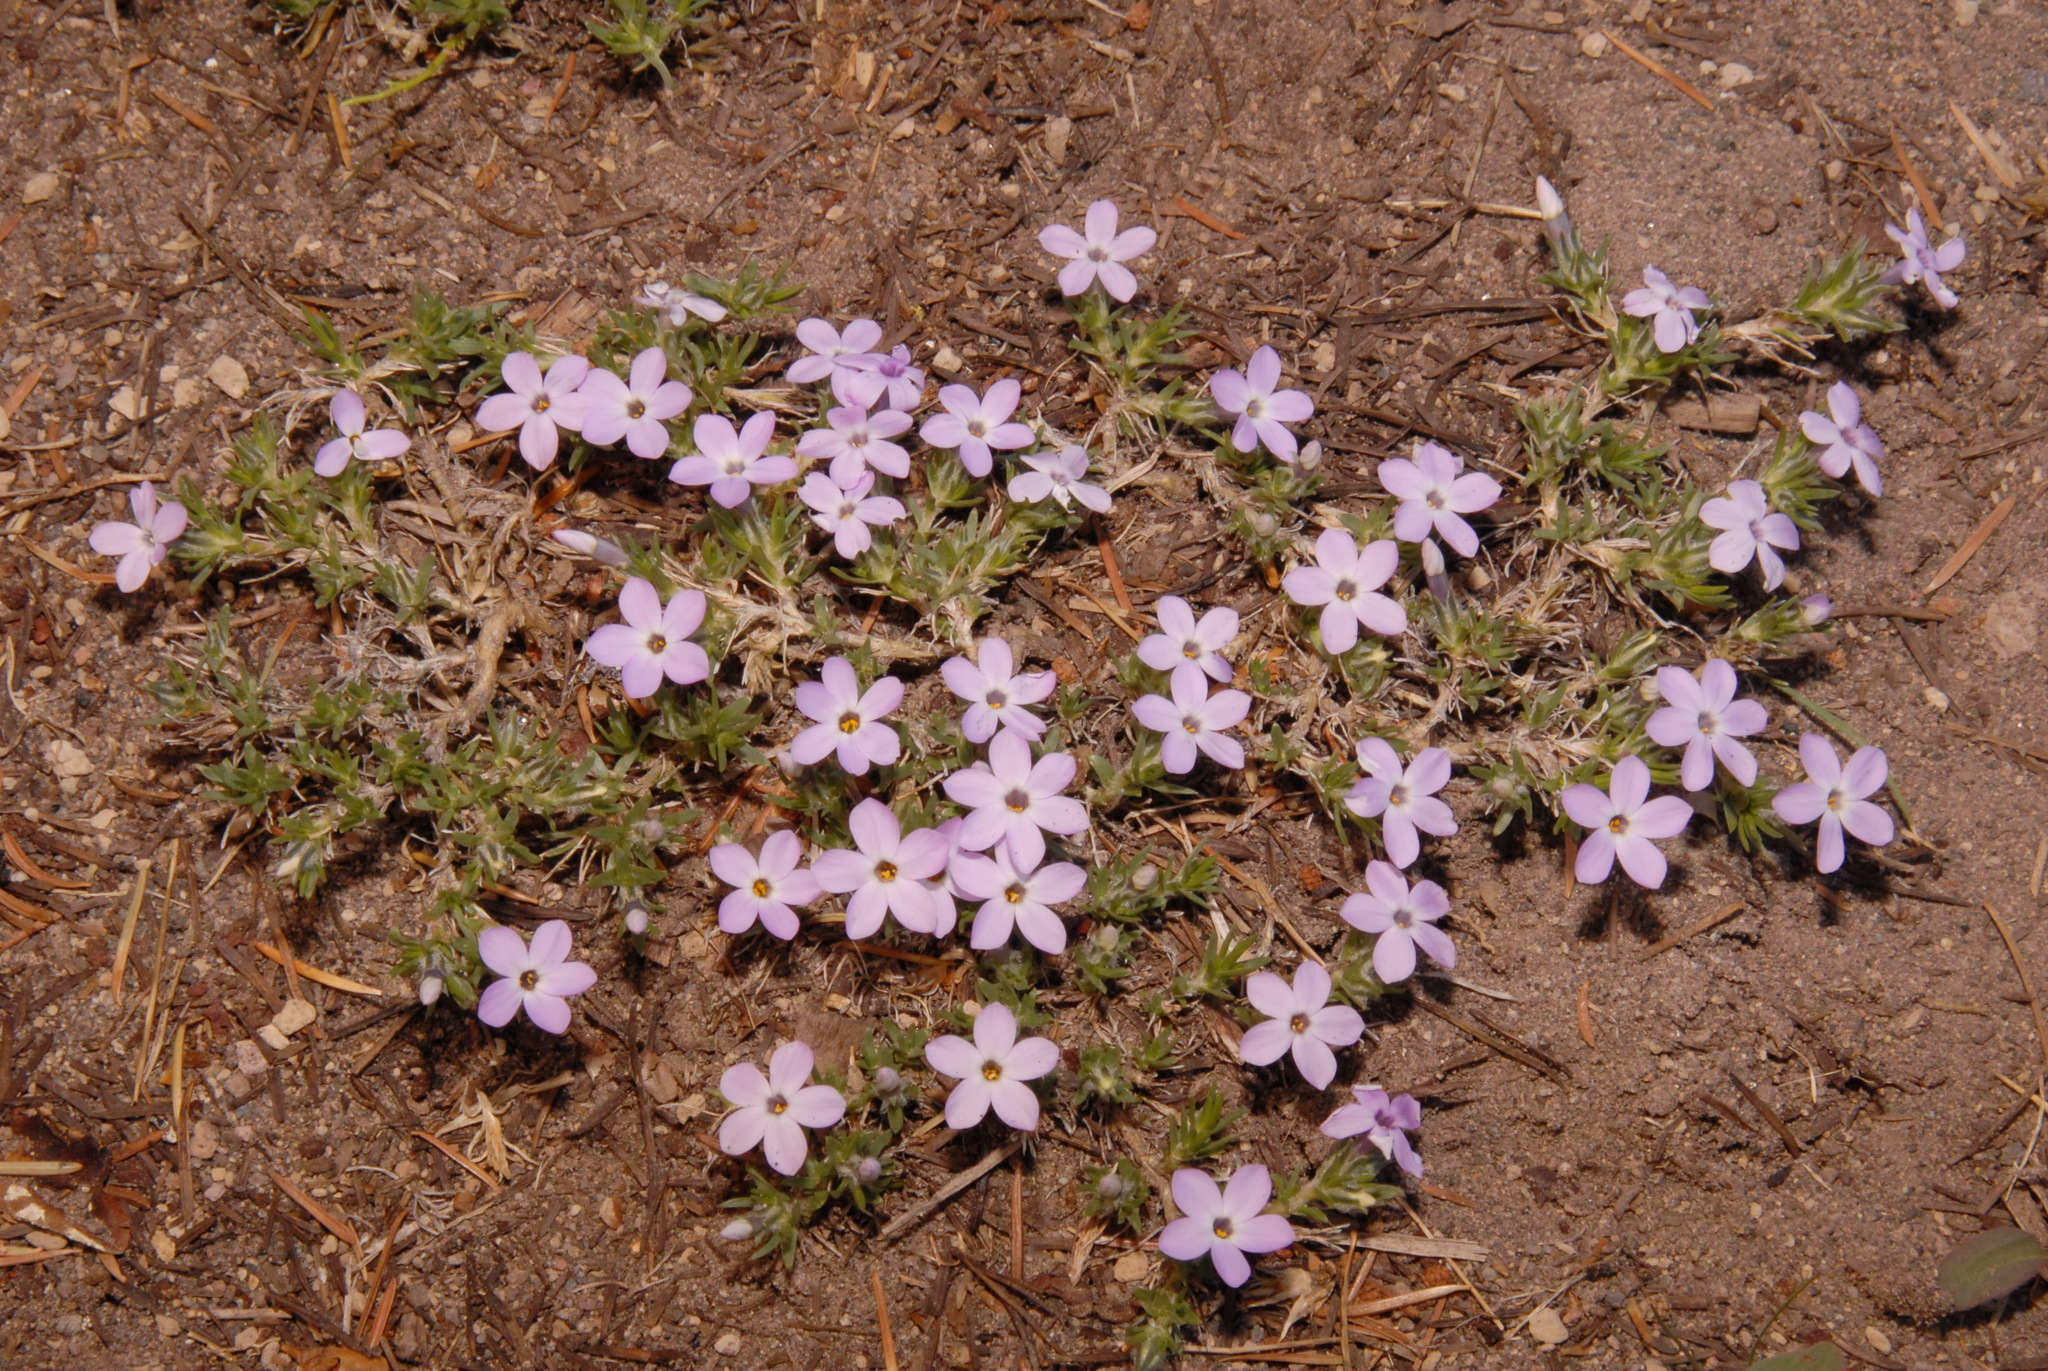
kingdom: Plantae
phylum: Tracheophyta
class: Magnoliopsida
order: Ericales
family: Polemoniaceae
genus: Phlox
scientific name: Phlox diffusa
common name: Mat phlox
